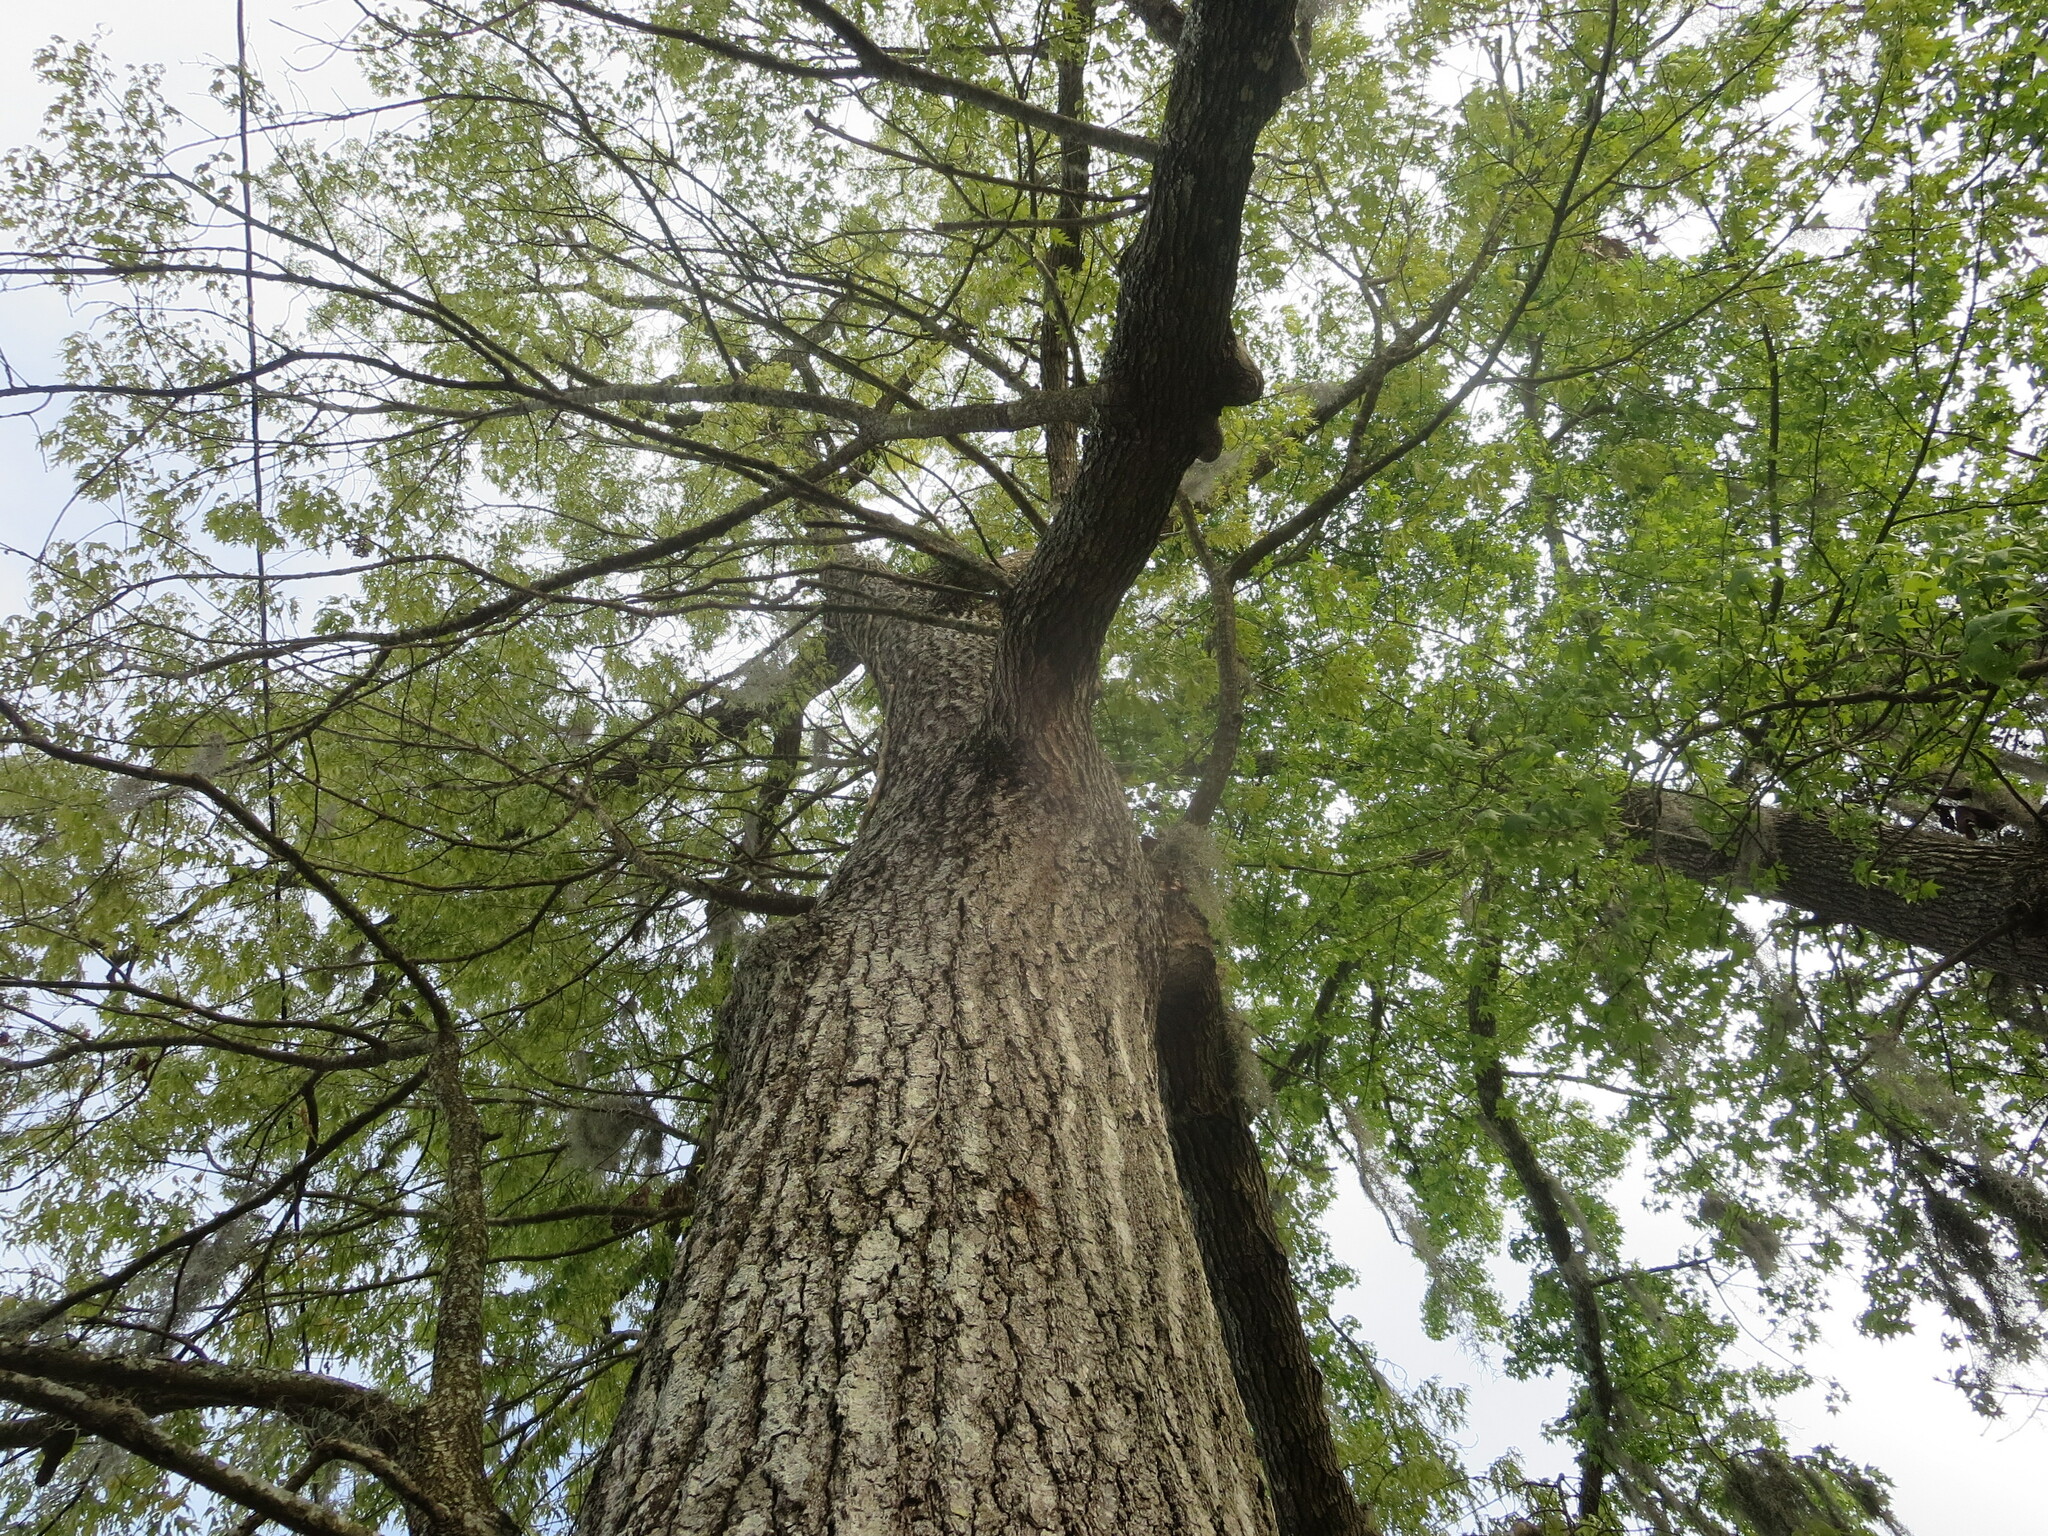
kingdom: Plantae
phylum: Tracheophyta
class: Magnoliopsida
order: Fagales
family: Fagaceae
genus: Quercus
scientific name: Quercus falcata
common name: Southern red oak
